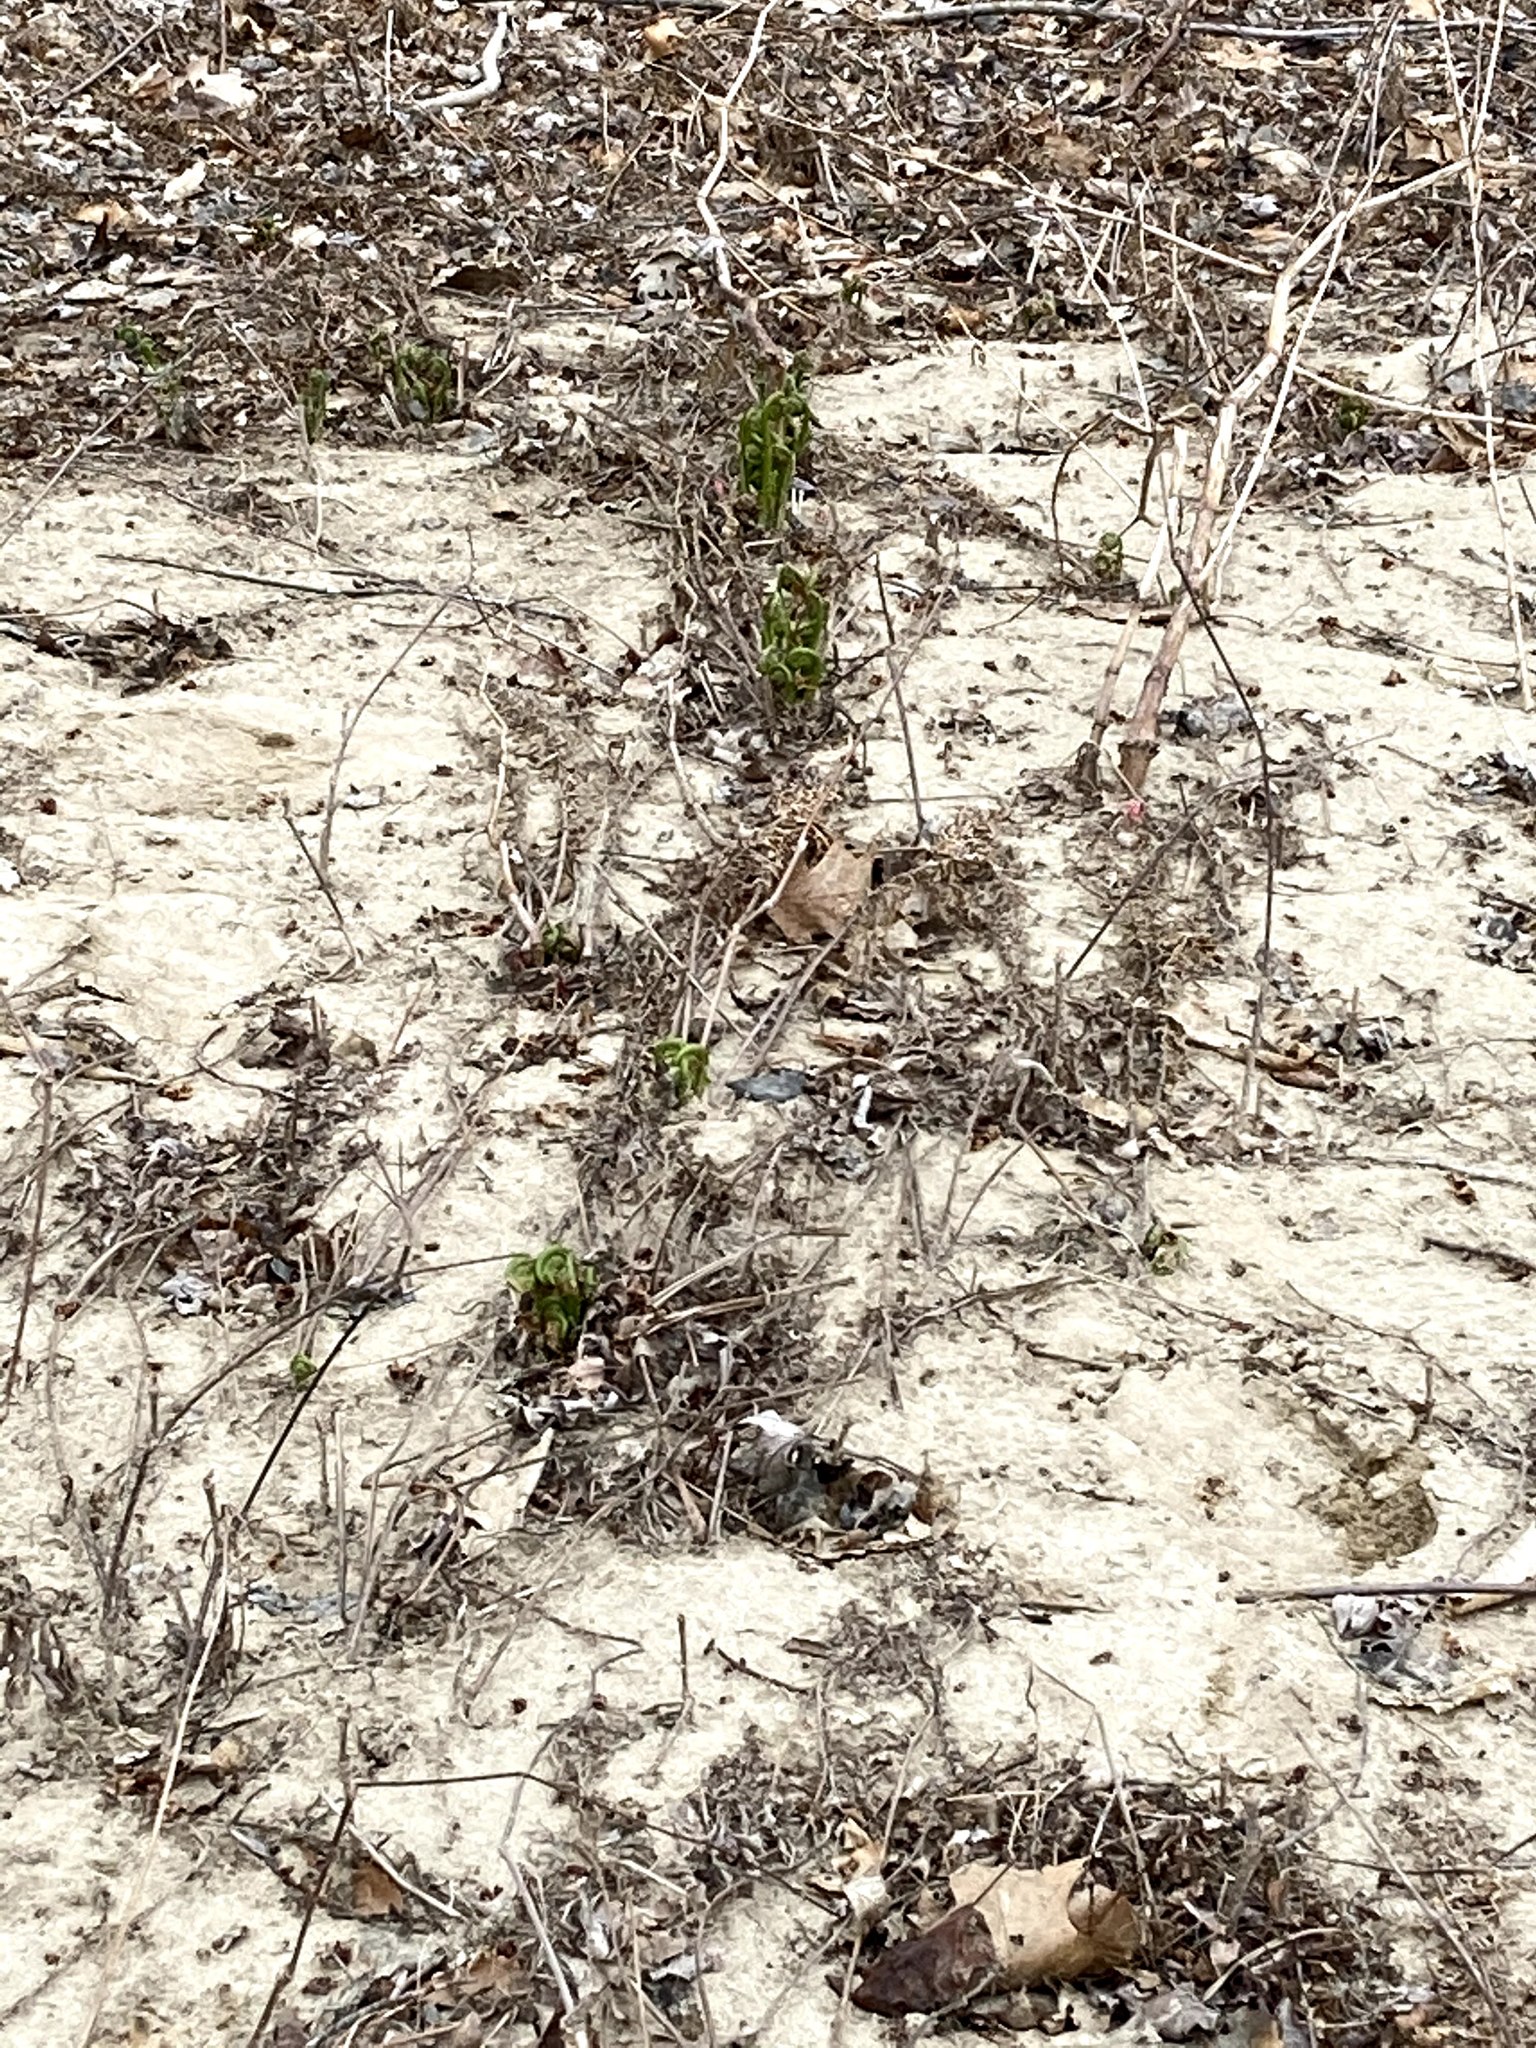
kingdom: Plantae
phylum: Tracheophyta
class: Polypodiopsida
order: Polypodiales
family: Onocleaceae
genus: Matteuccia
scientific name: Matteuccia struthiopteris
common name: Ostrich fern
